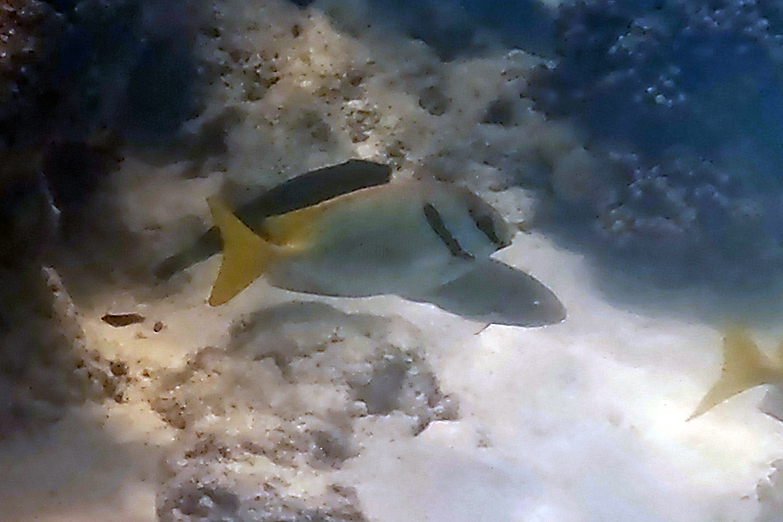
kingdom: Animalia
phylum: Chordata
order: Perciformes
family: Siganidae
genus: Siganus
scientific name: Siganus doliatus
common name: Barred spinefoot
